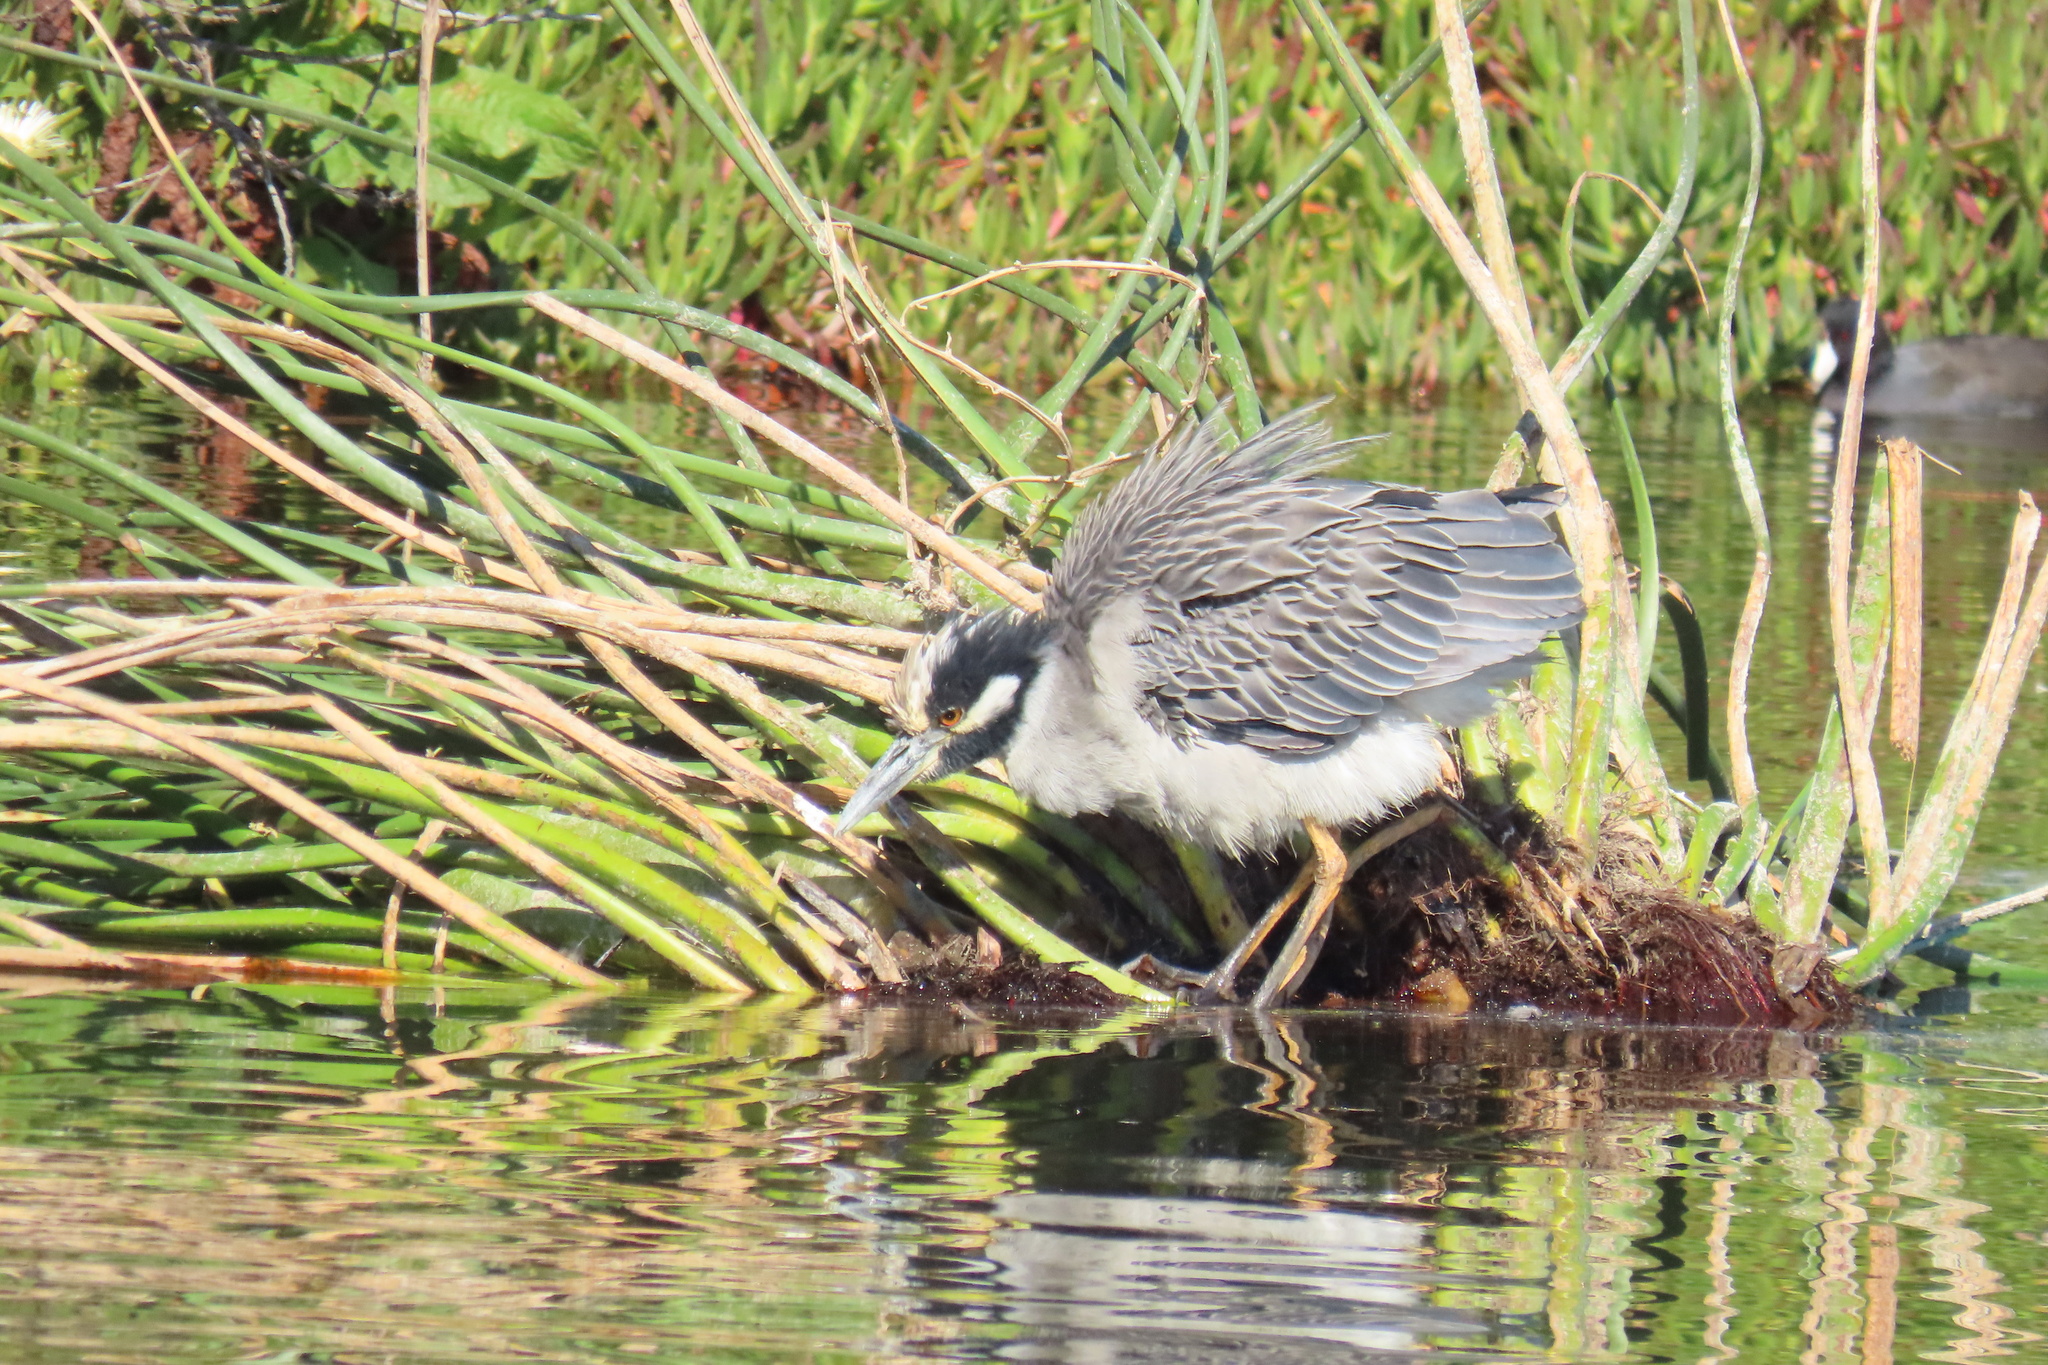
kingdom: Animalia
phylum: Chordata
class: Aves
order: Pelecaniformes
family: Ardeidae
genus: Nyctanassa
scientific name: Nyctanassa violacea
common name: Yellow-crowned night heron
